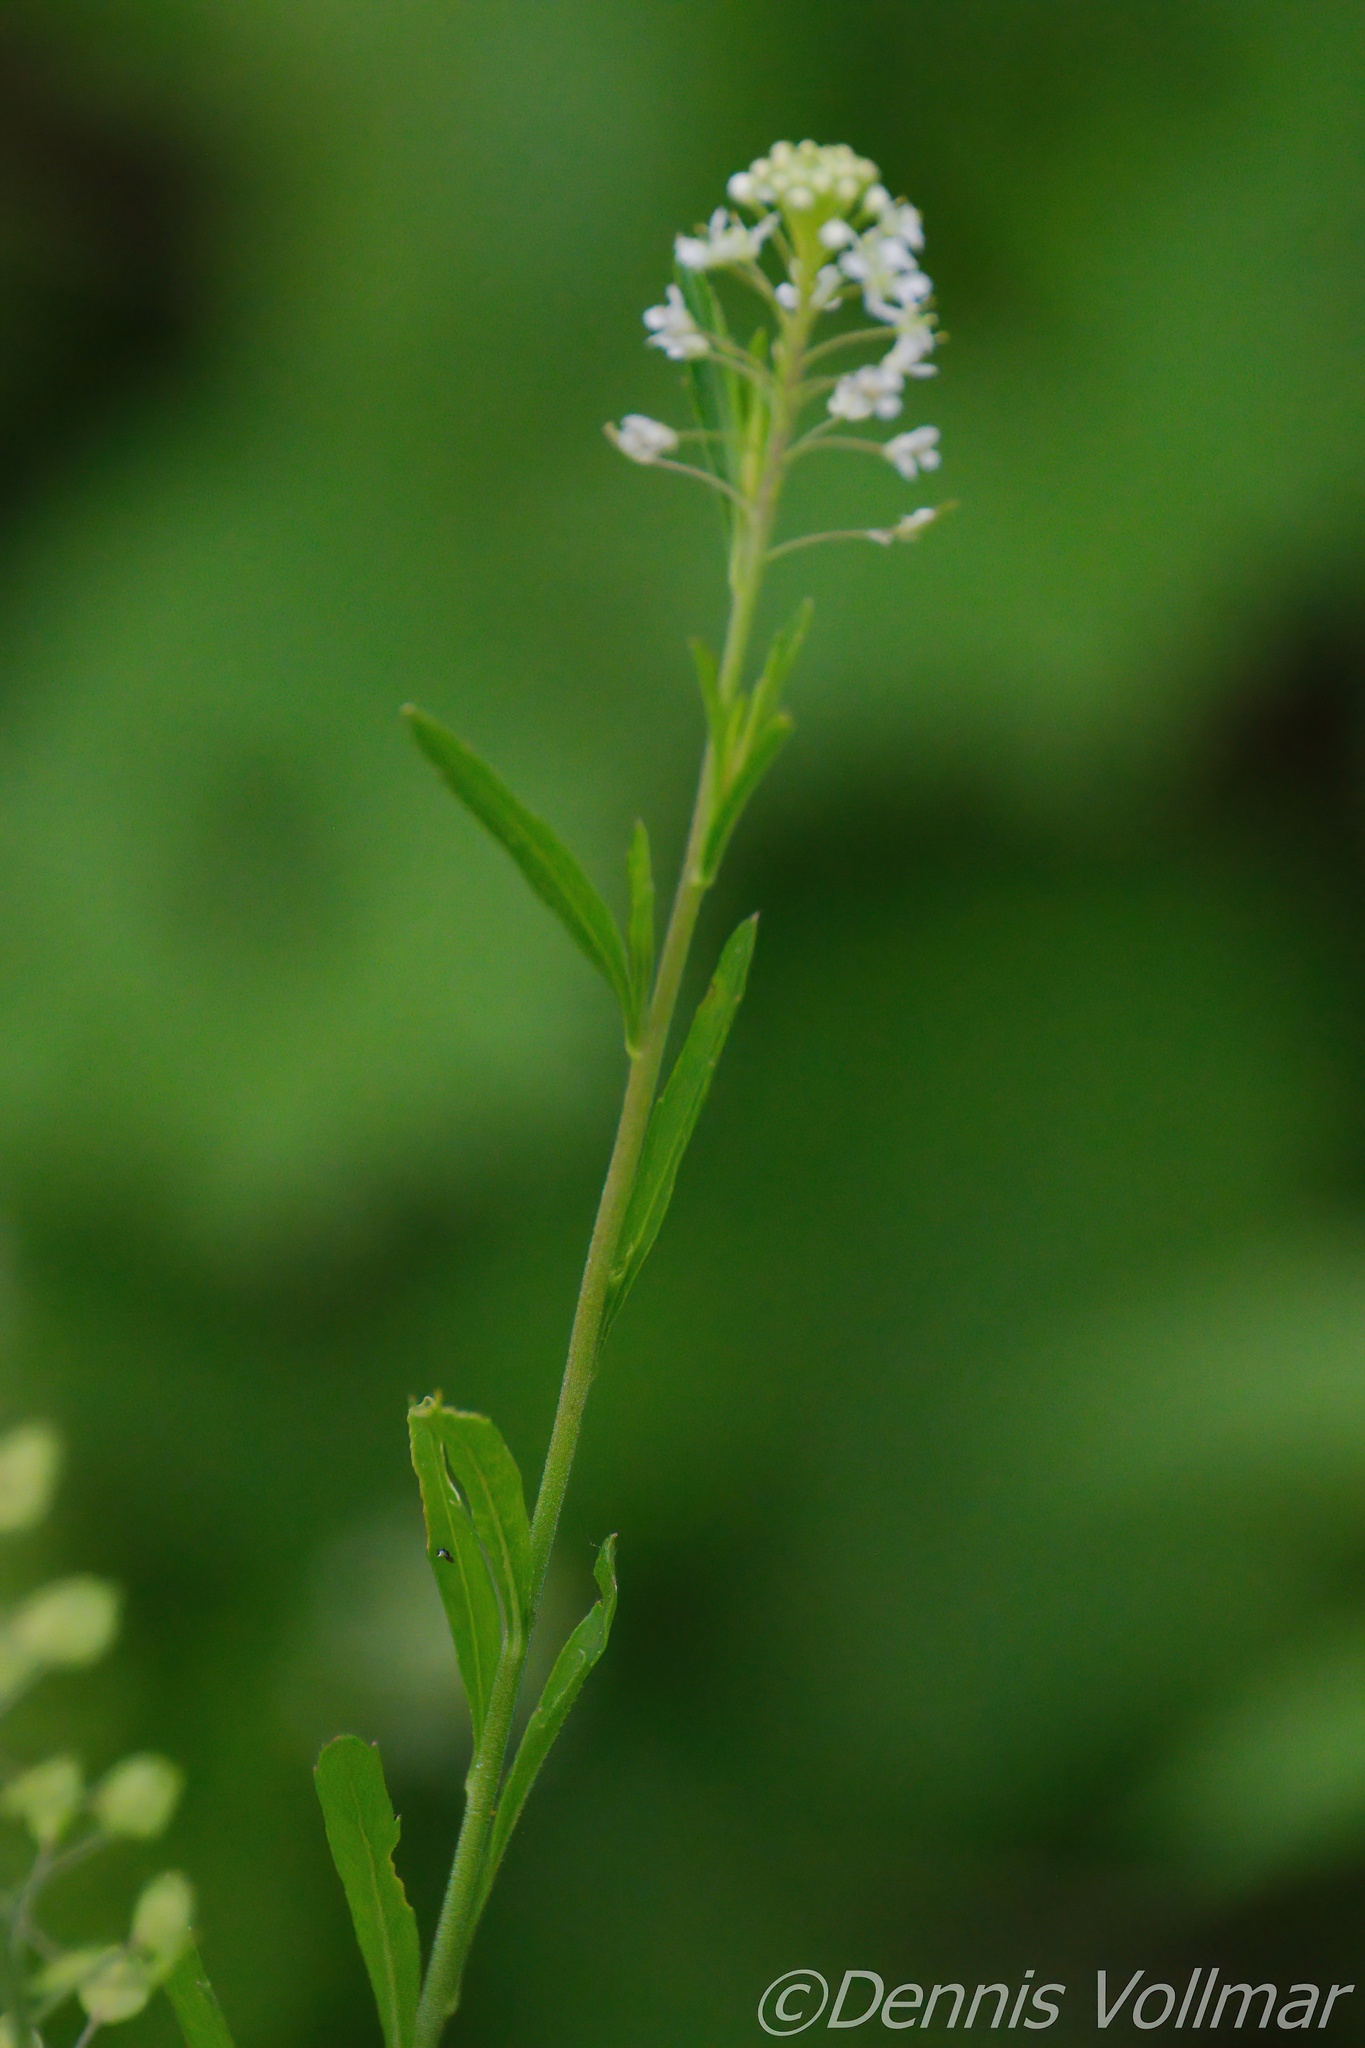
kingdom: Plantae
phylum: Tracheophyta
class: Magnoliopsida
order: Brassicales
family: Brassicaceae
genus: Lepidium
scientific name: Lepidium virginicum
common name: Least pepperwort
